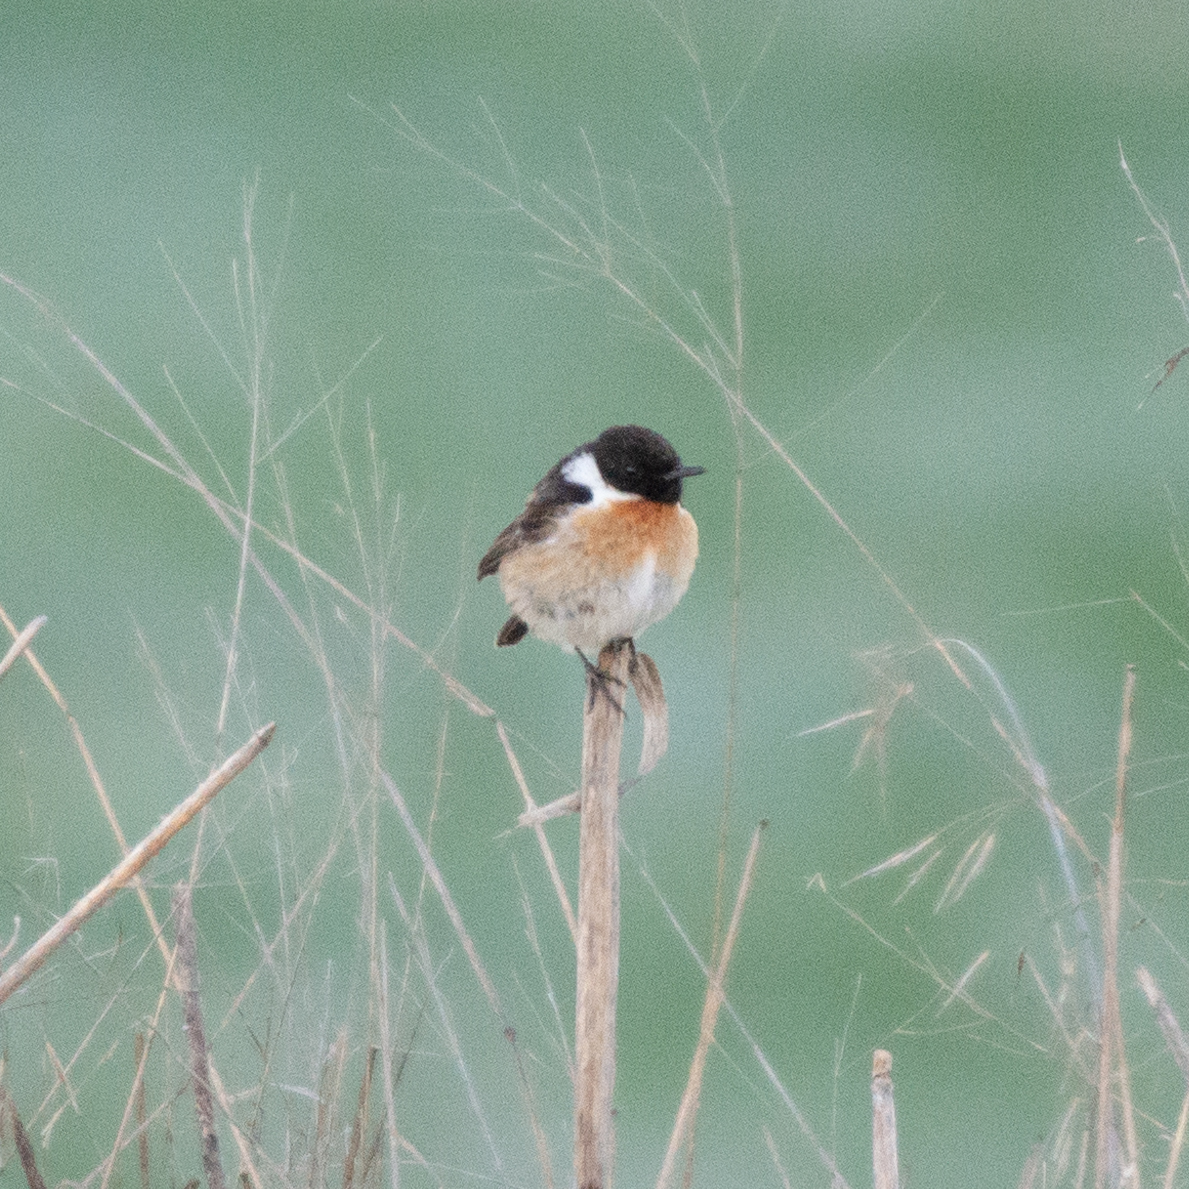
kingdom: Animalia
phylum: Chordata
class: Aves
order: Passeriformes
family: Muscicapidae
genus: Saxicola
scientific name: Saxicola rubicola
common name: European stonechat
